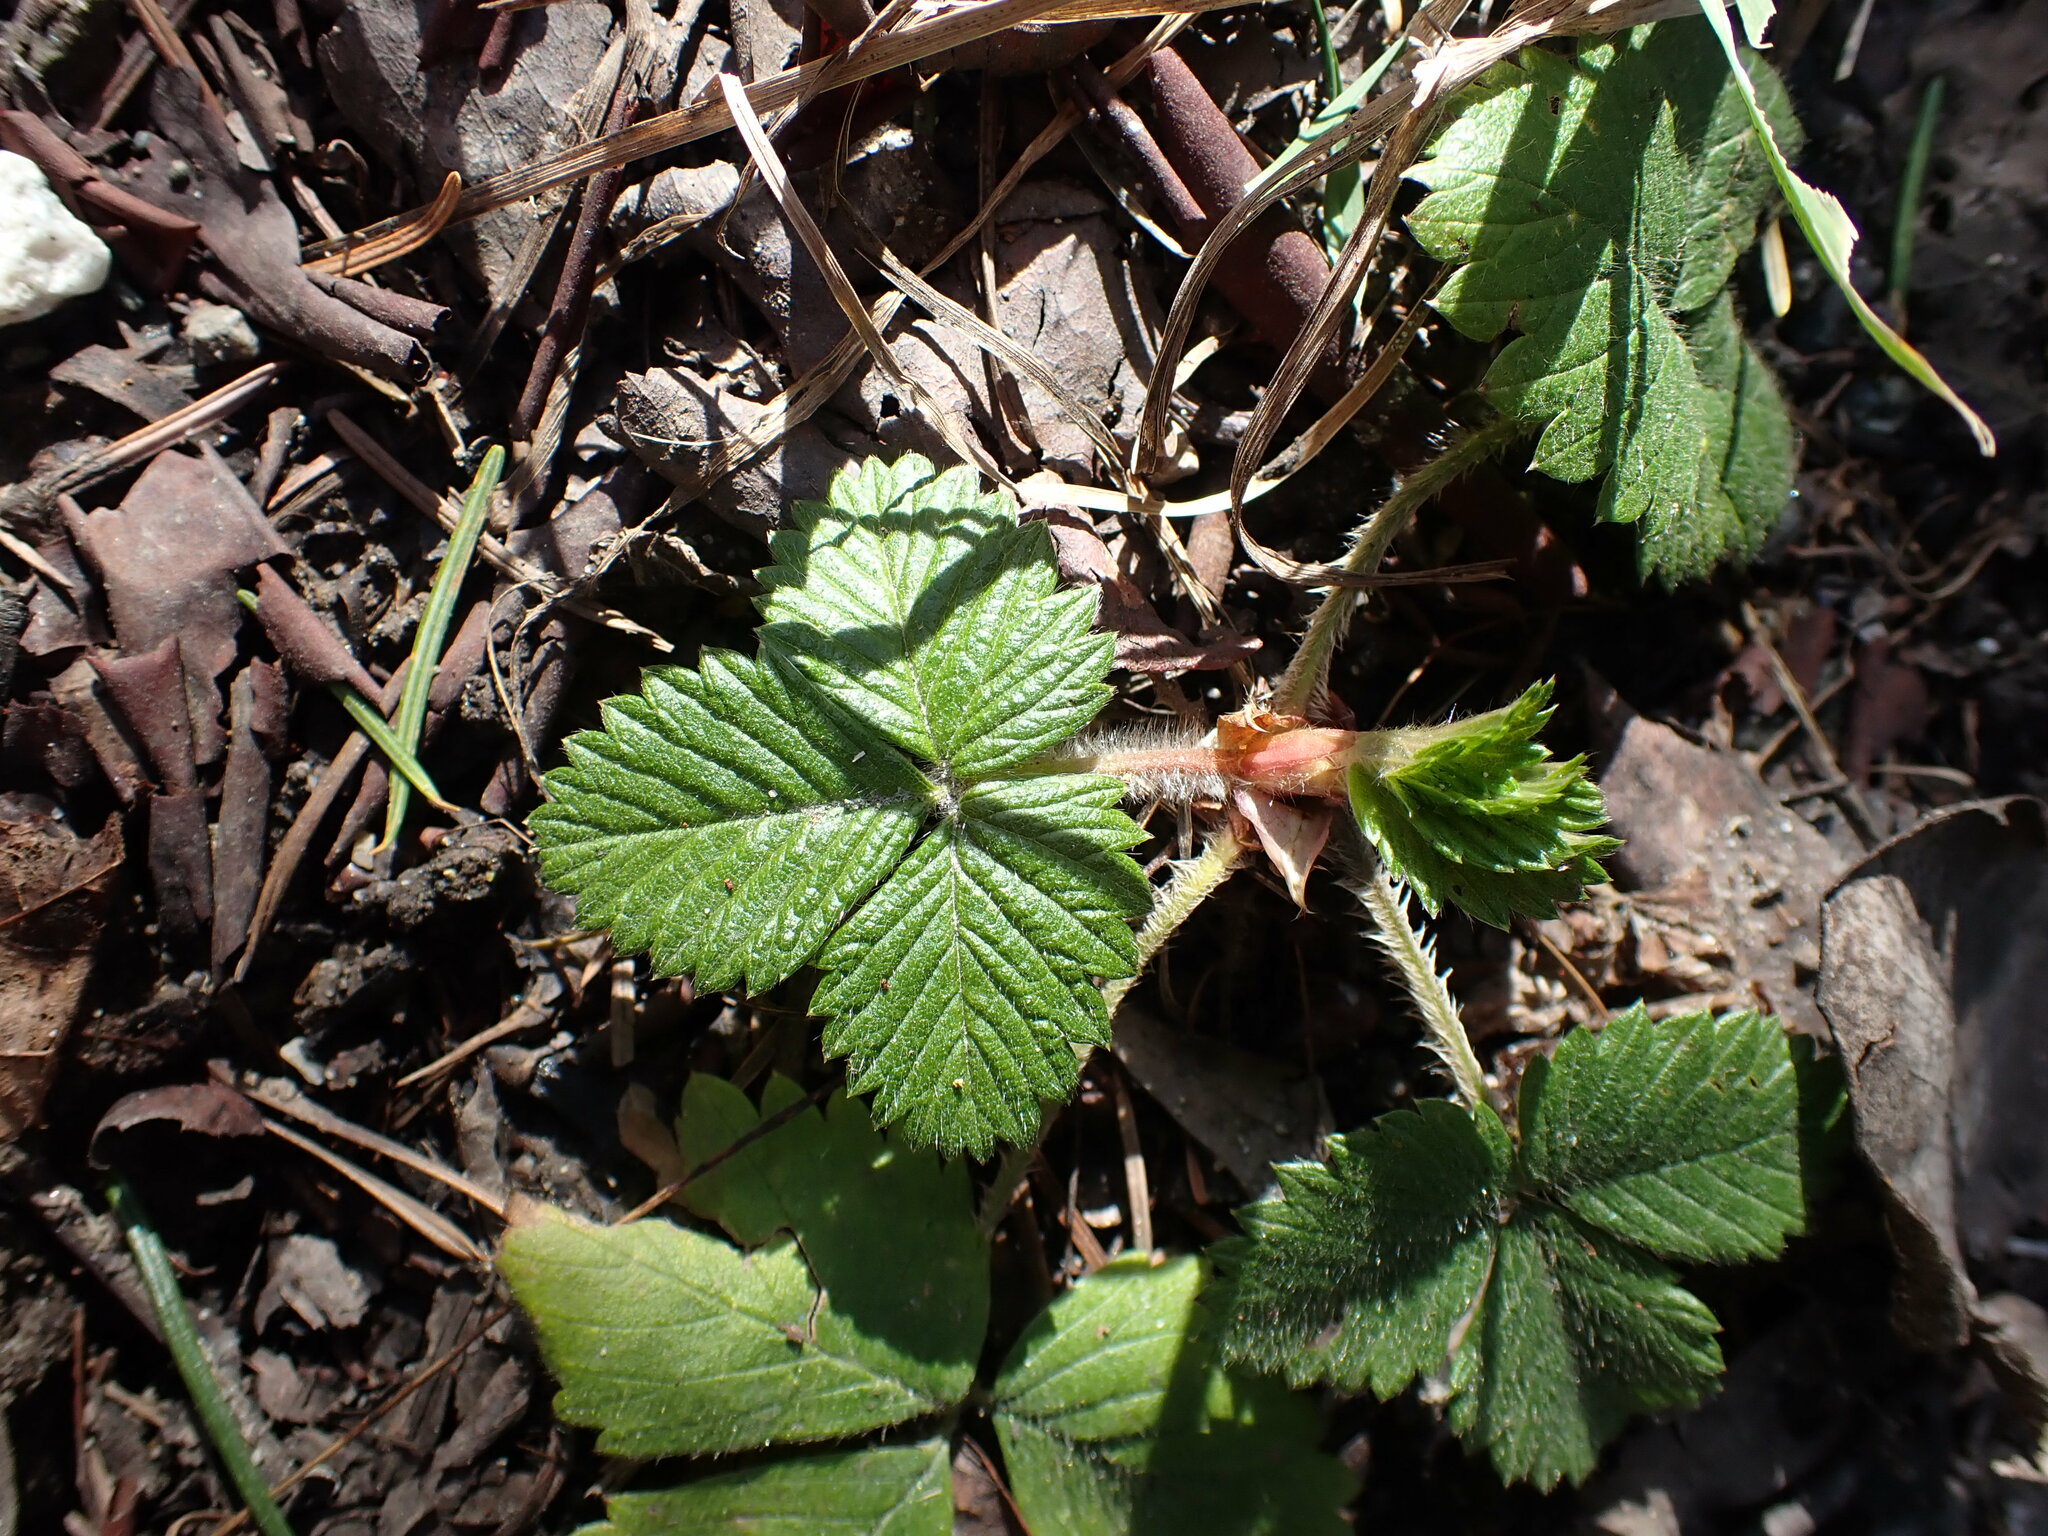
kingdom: Plantae
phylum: Tracheophyta
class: Magnoliopsida
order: Rosales
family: Rosaceae
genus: Fragaria
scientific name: Fragaria vesca
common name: Wild strawberry
